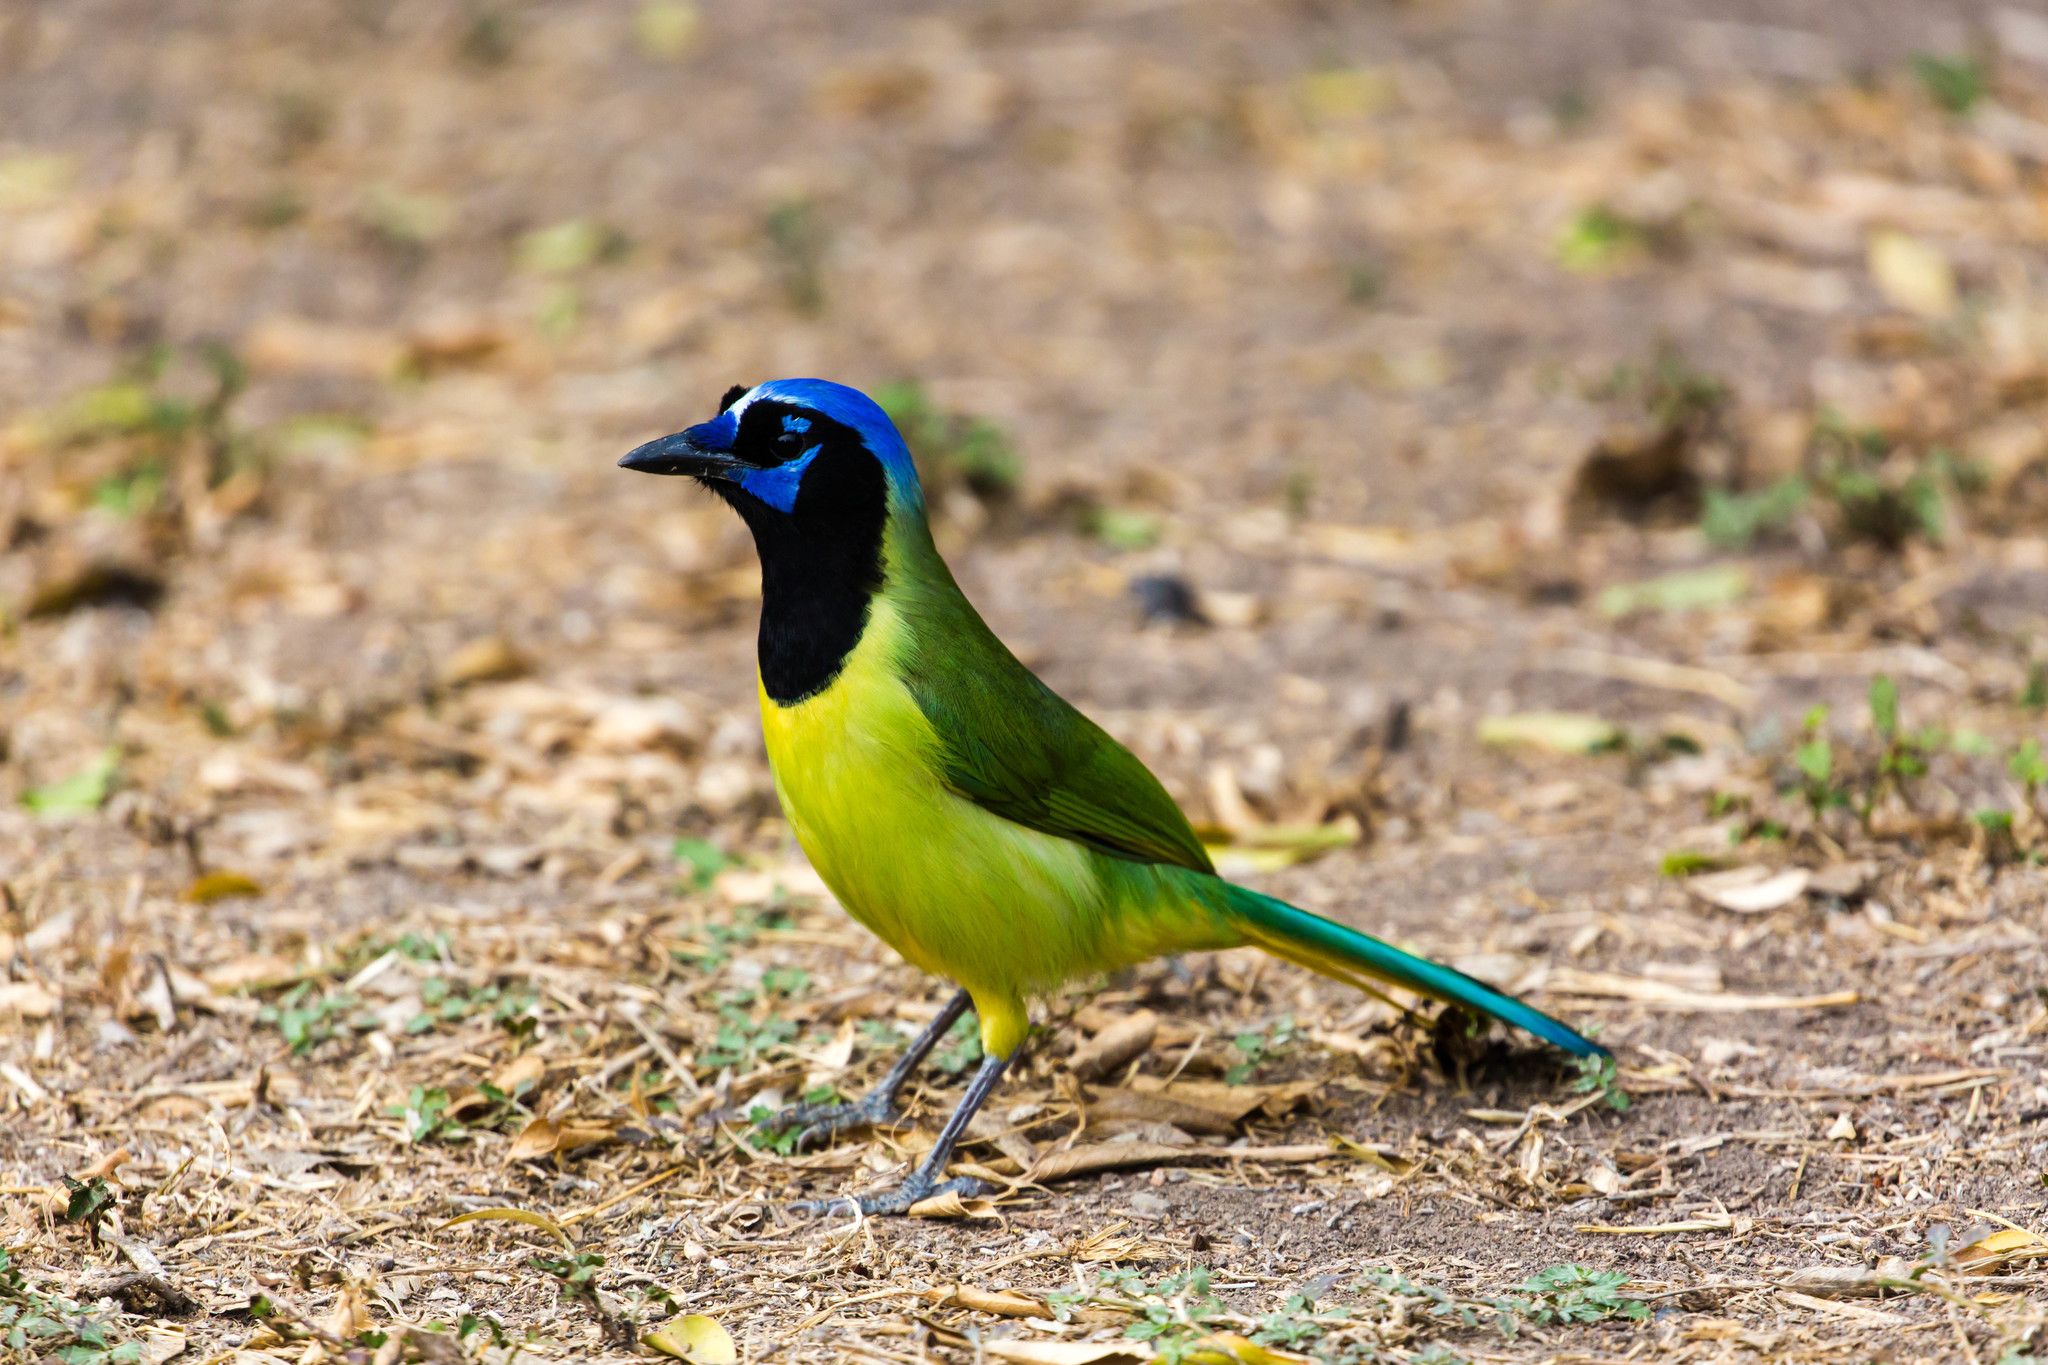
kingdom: Animalia
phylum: Chordata
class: Aves
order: Passeriformes
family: Corvidae
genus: Cyanocorax
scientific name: Cyanocorax yncas
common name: Green jay
